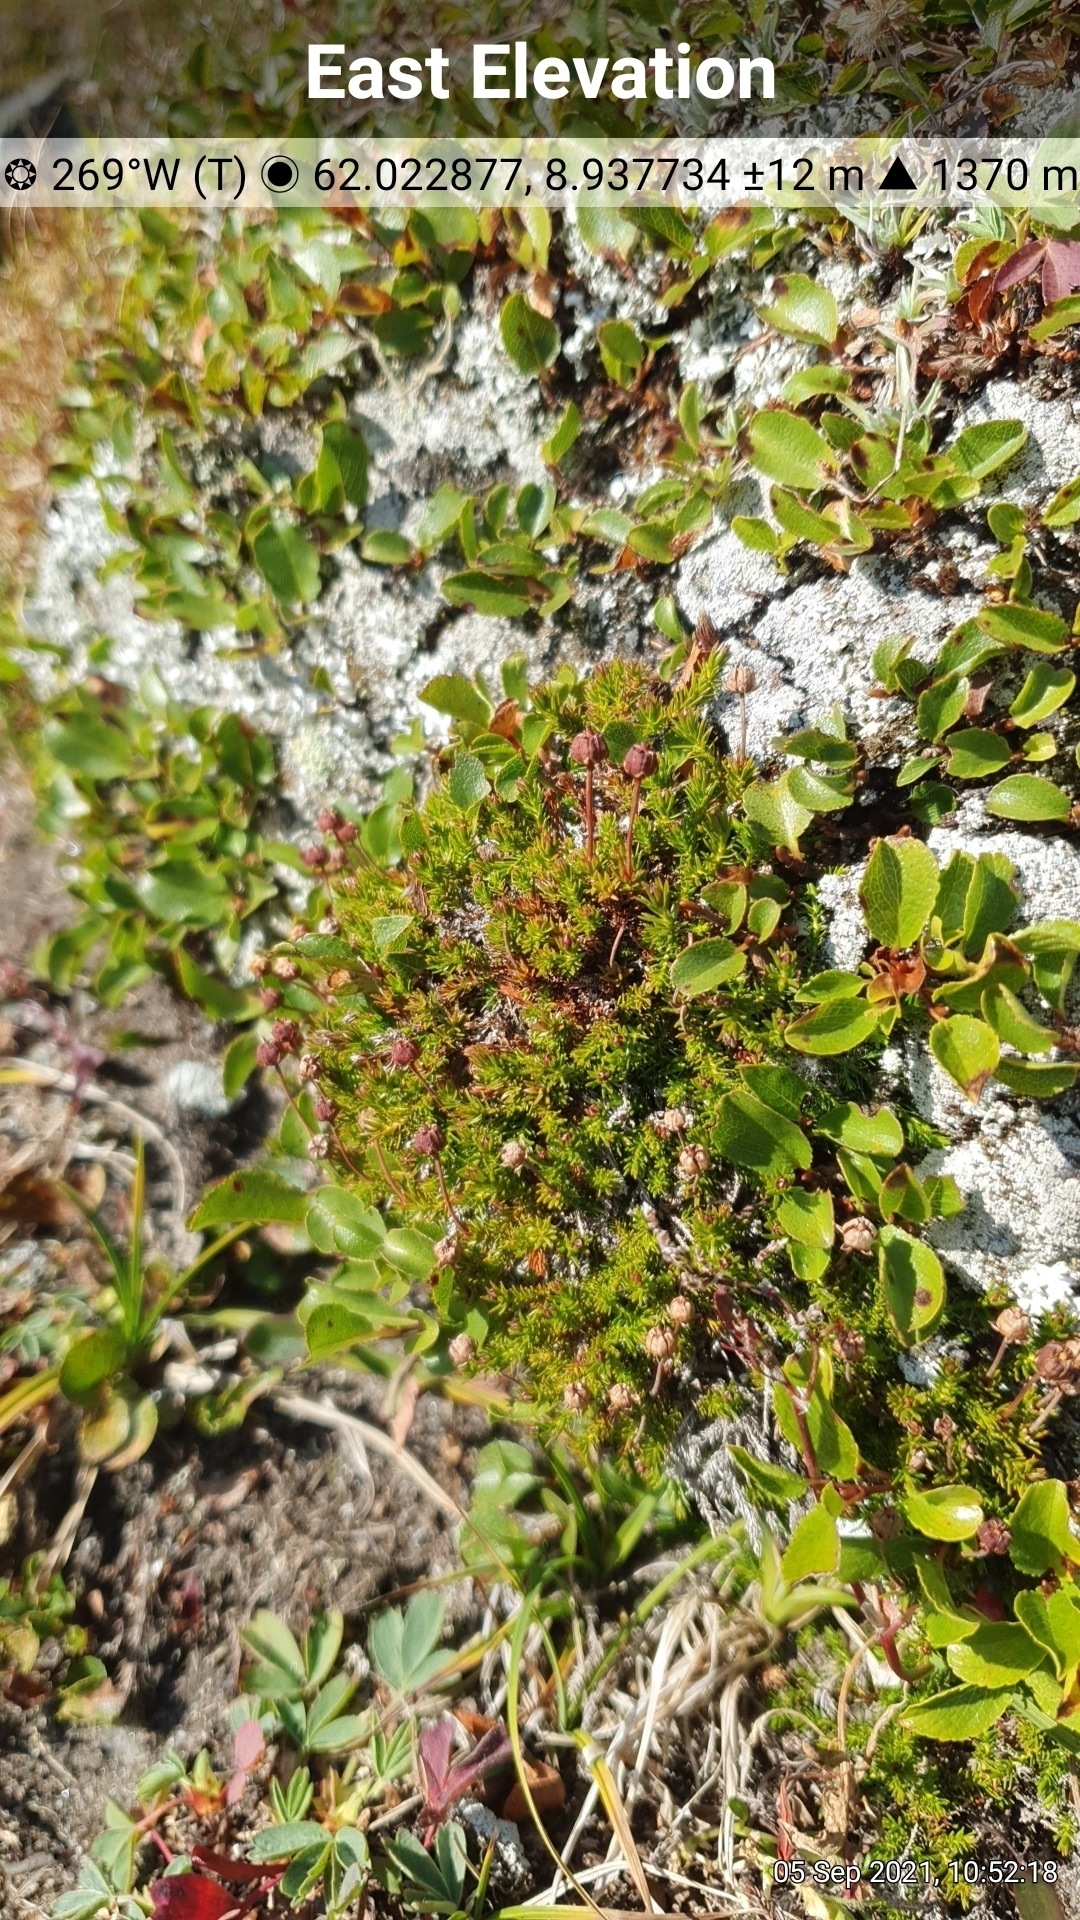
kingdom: Plantae
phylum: Tracheophyta
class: Magnoliopsida
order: Ericales
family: Ericaceae
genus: Harrimanella
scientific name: Harrimanella hypnoides
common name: Moss bell heather
